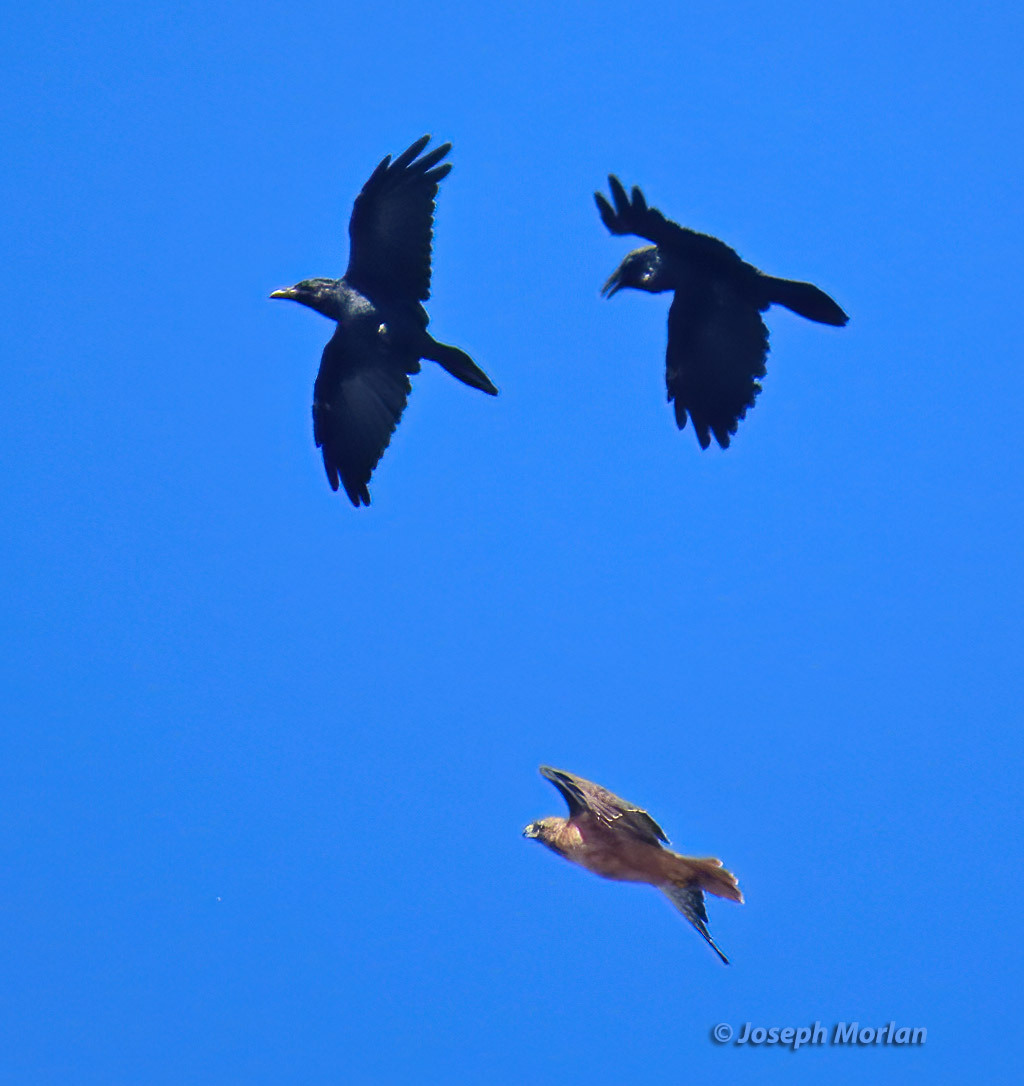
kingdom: Animalia
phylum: Chordata
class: Aves
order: Passeriformes
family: Corvidae
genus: Corvus
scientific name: Corvus corax
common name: Common raven
